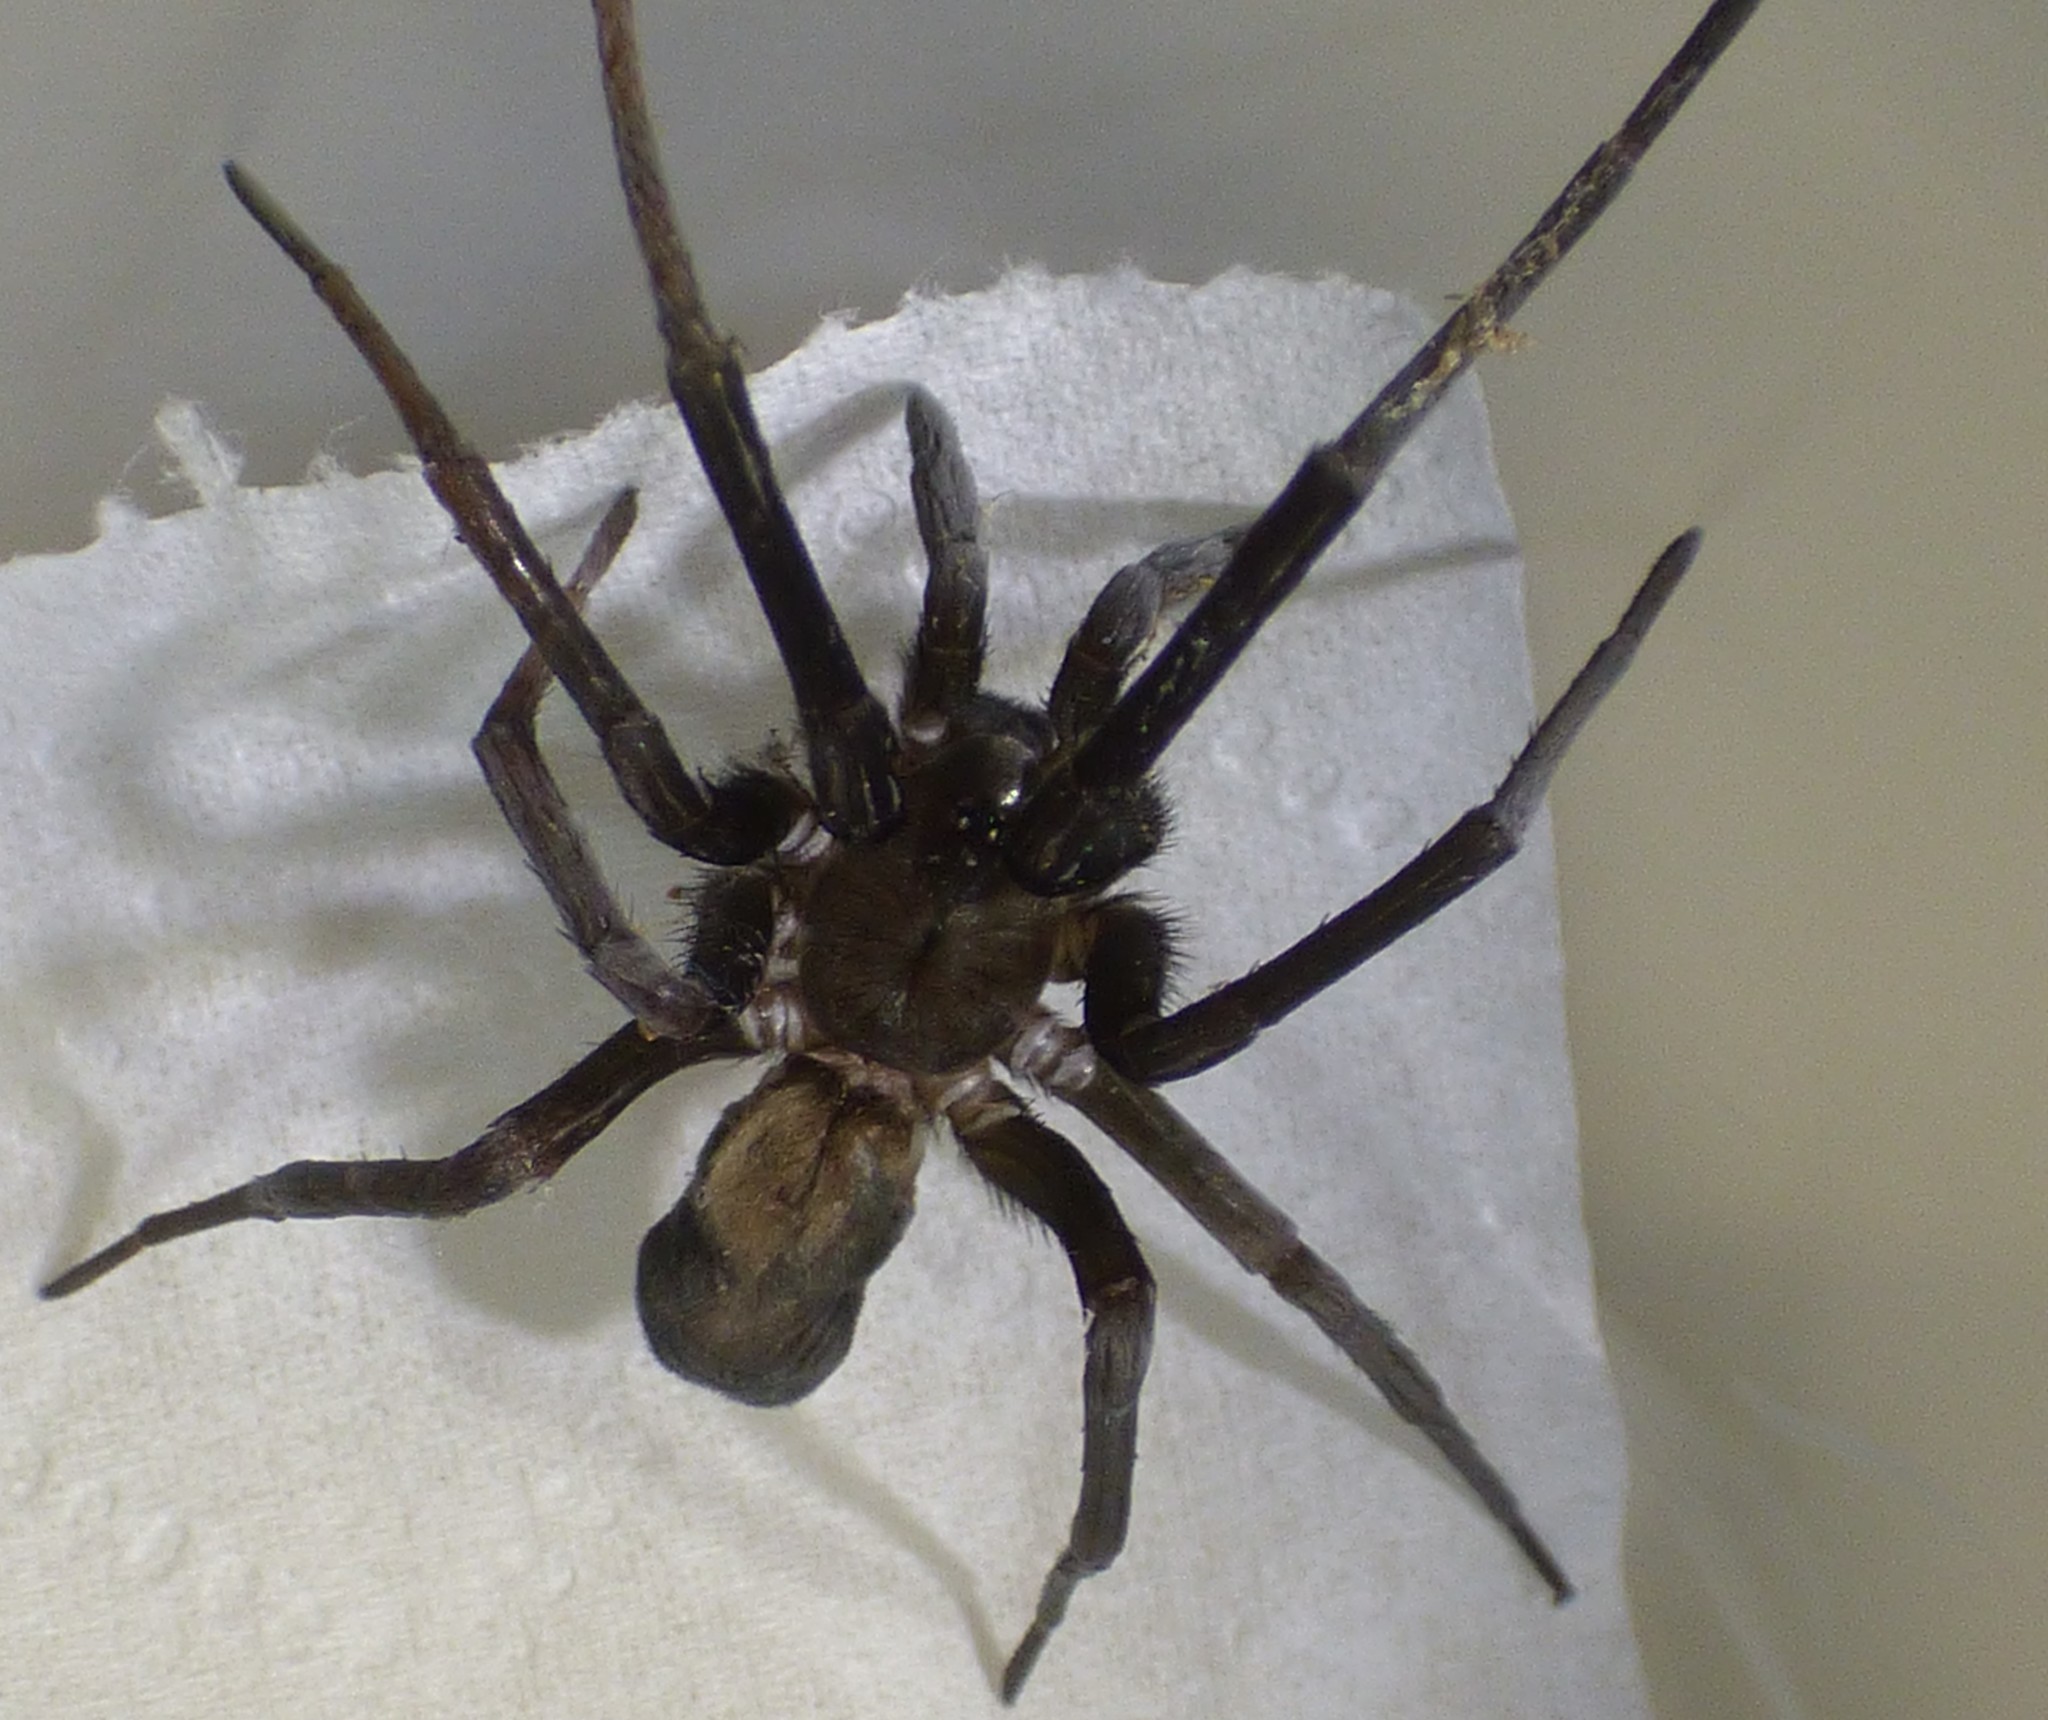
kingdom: Animalia
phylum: Arthropoda
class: Arachnida
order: Araneae
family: Filistatidae
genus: Kukulcania
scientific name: Kukulcania hibernalis
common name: Crevice weaver
